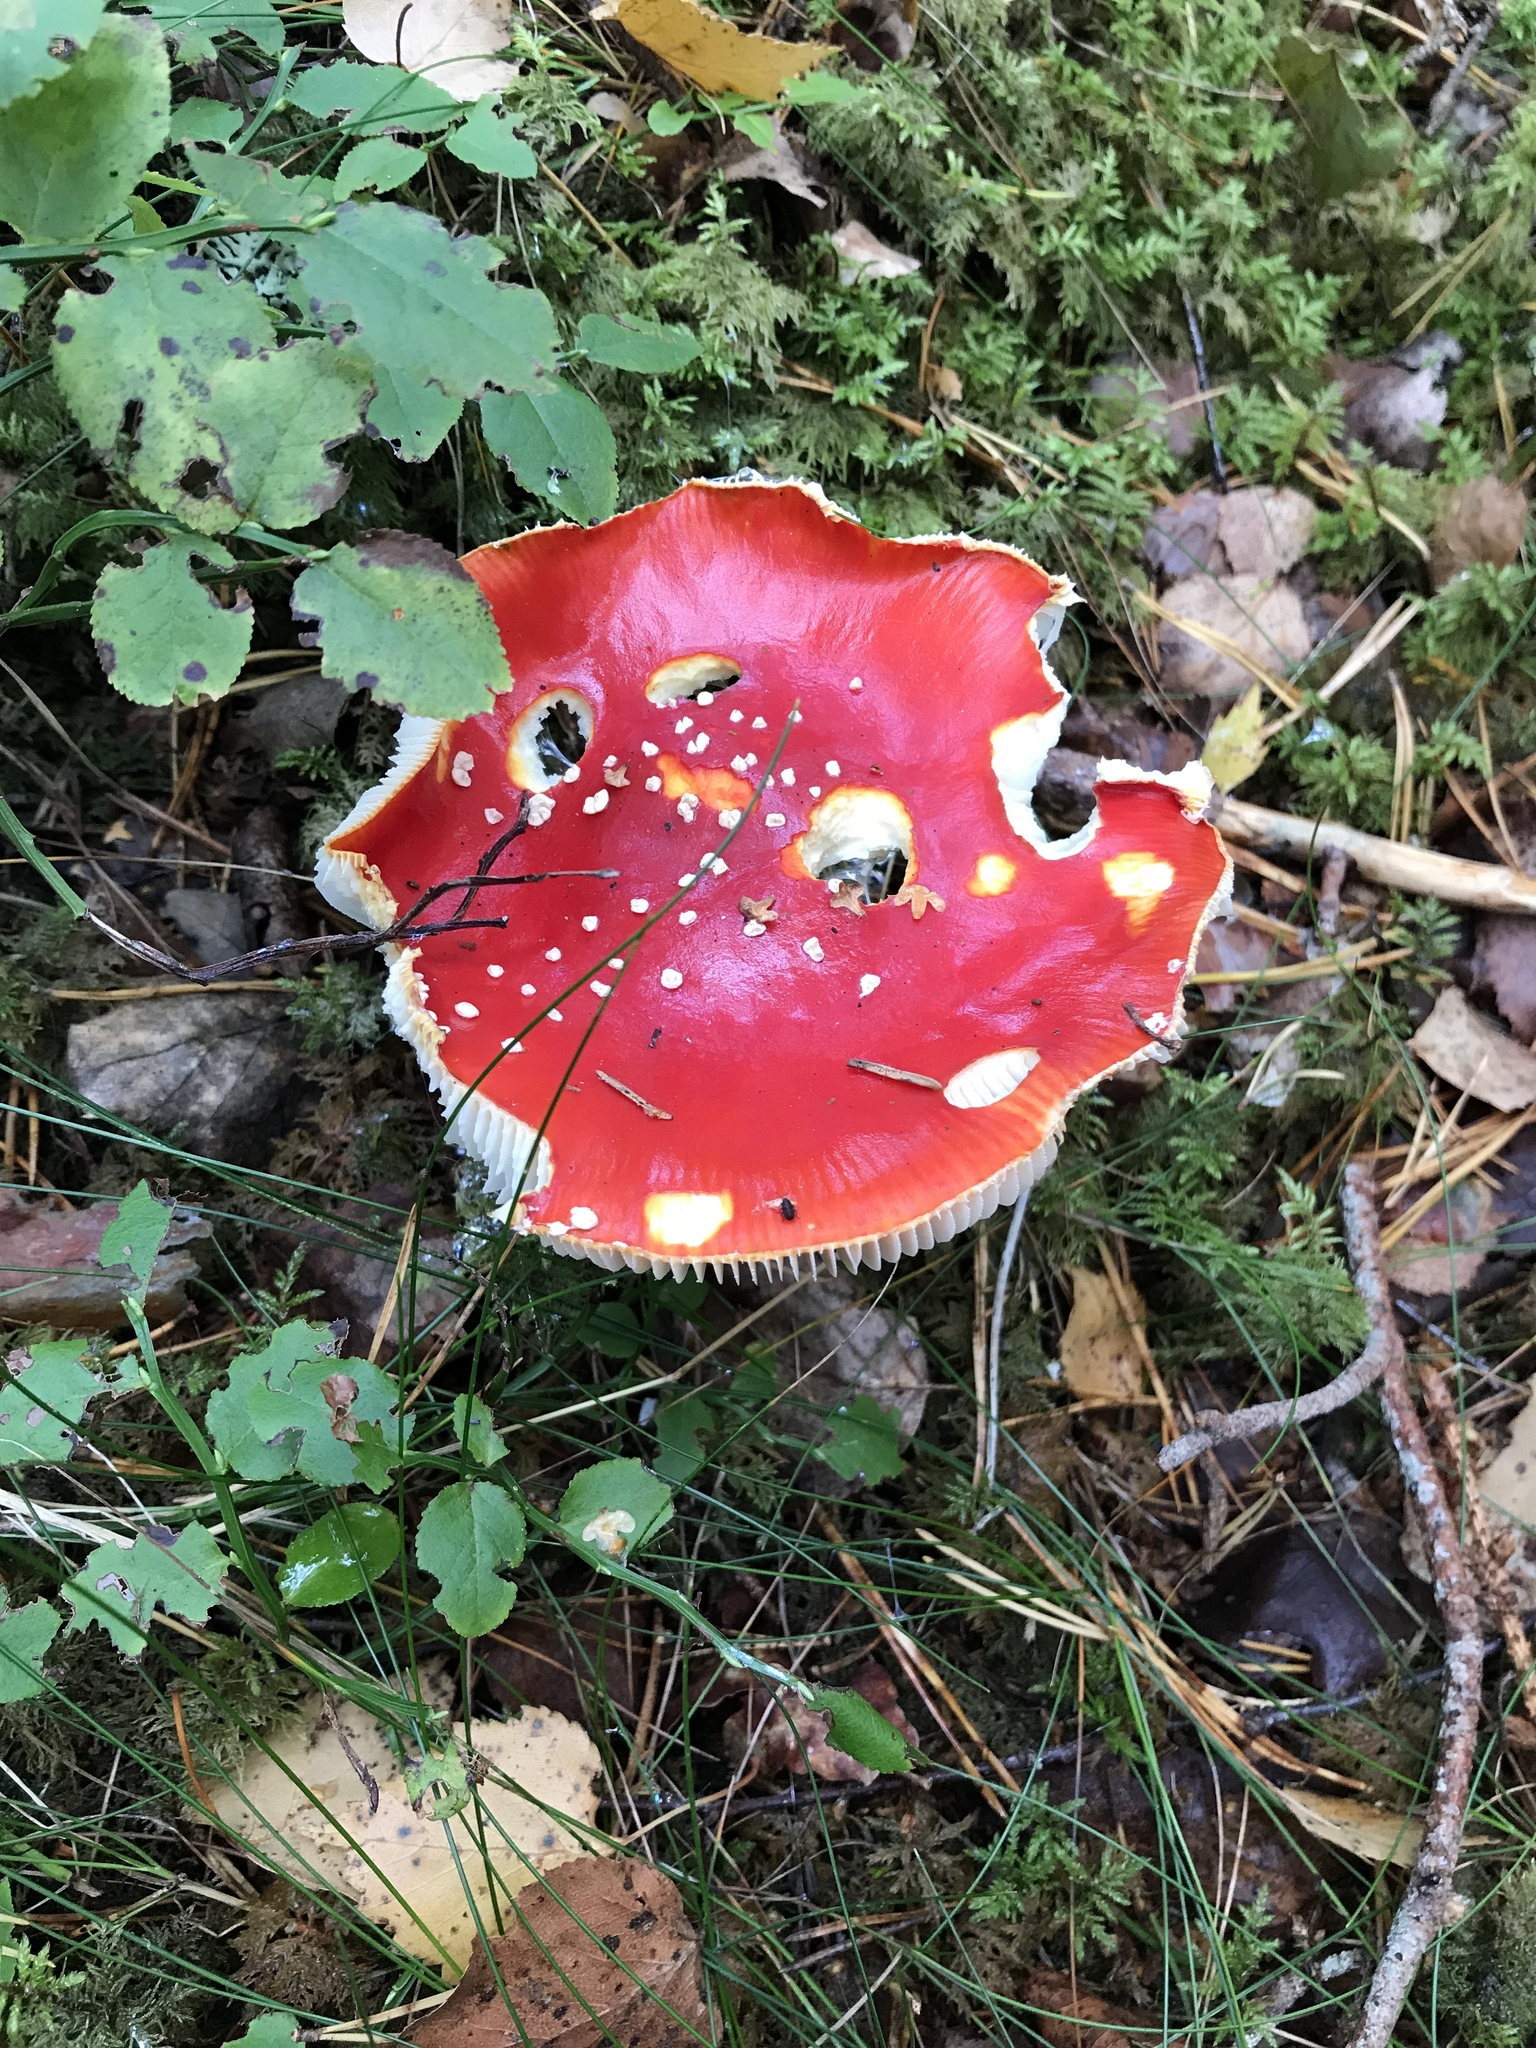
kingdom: Fungi
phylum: Basidiomycota
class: Agaricomycetes
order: Agaricales
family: Amanitaceae
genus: Amanita
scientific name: Amanita muscaria
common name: Fly agaric
